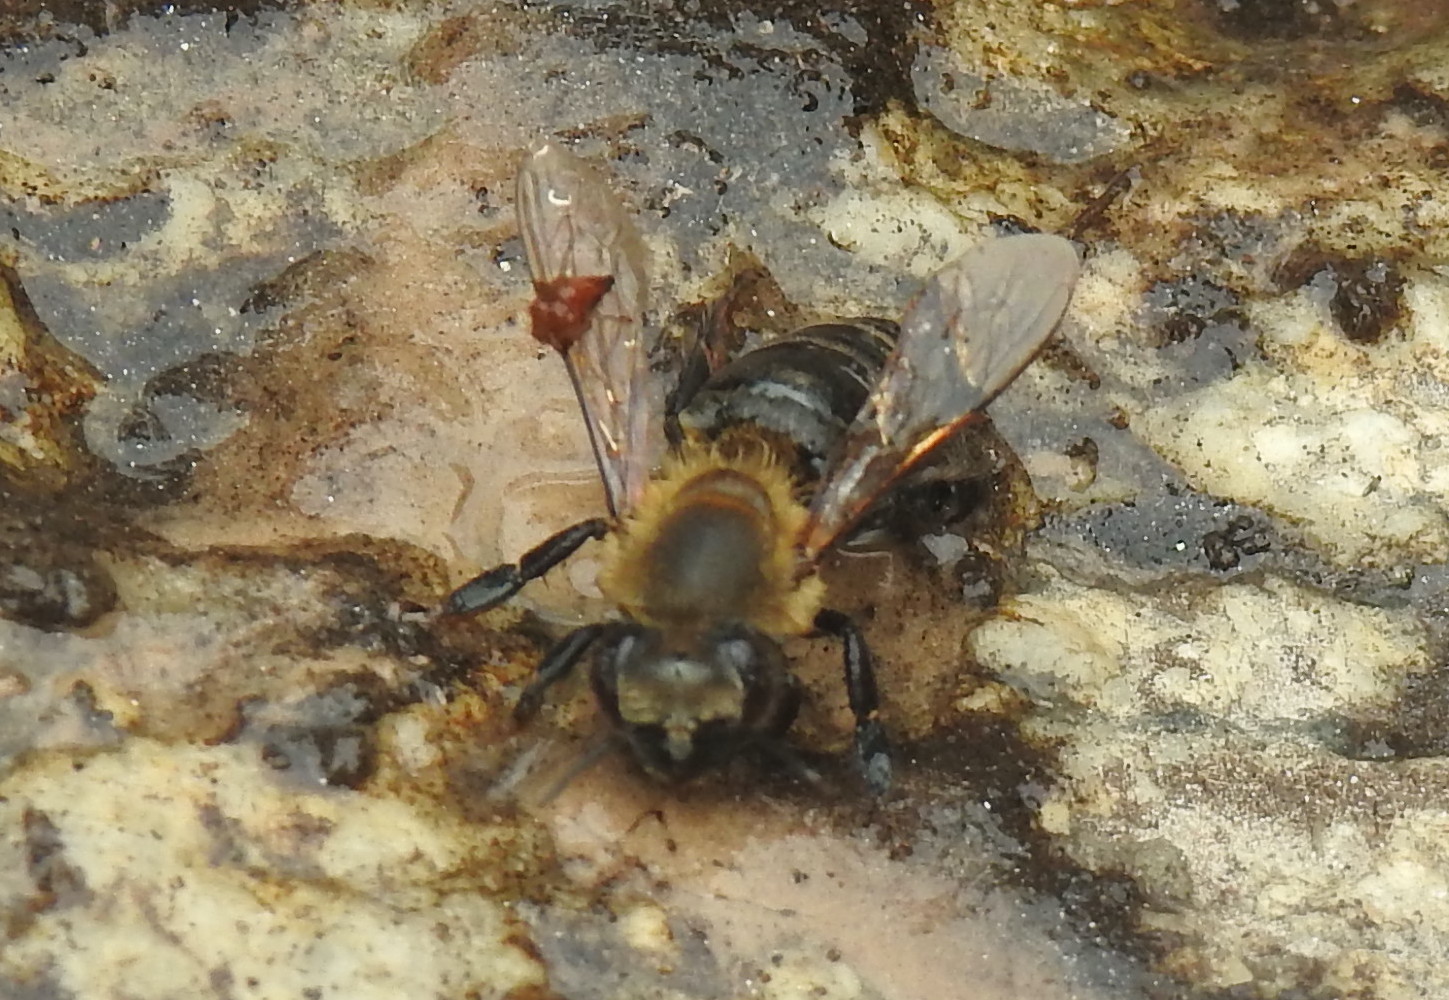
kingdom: Animalia
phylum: Arthropoda
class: Insecta
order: Hymenoptera
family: Apidae
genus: Apis
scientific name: Apis mellifera
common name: Honey bee
